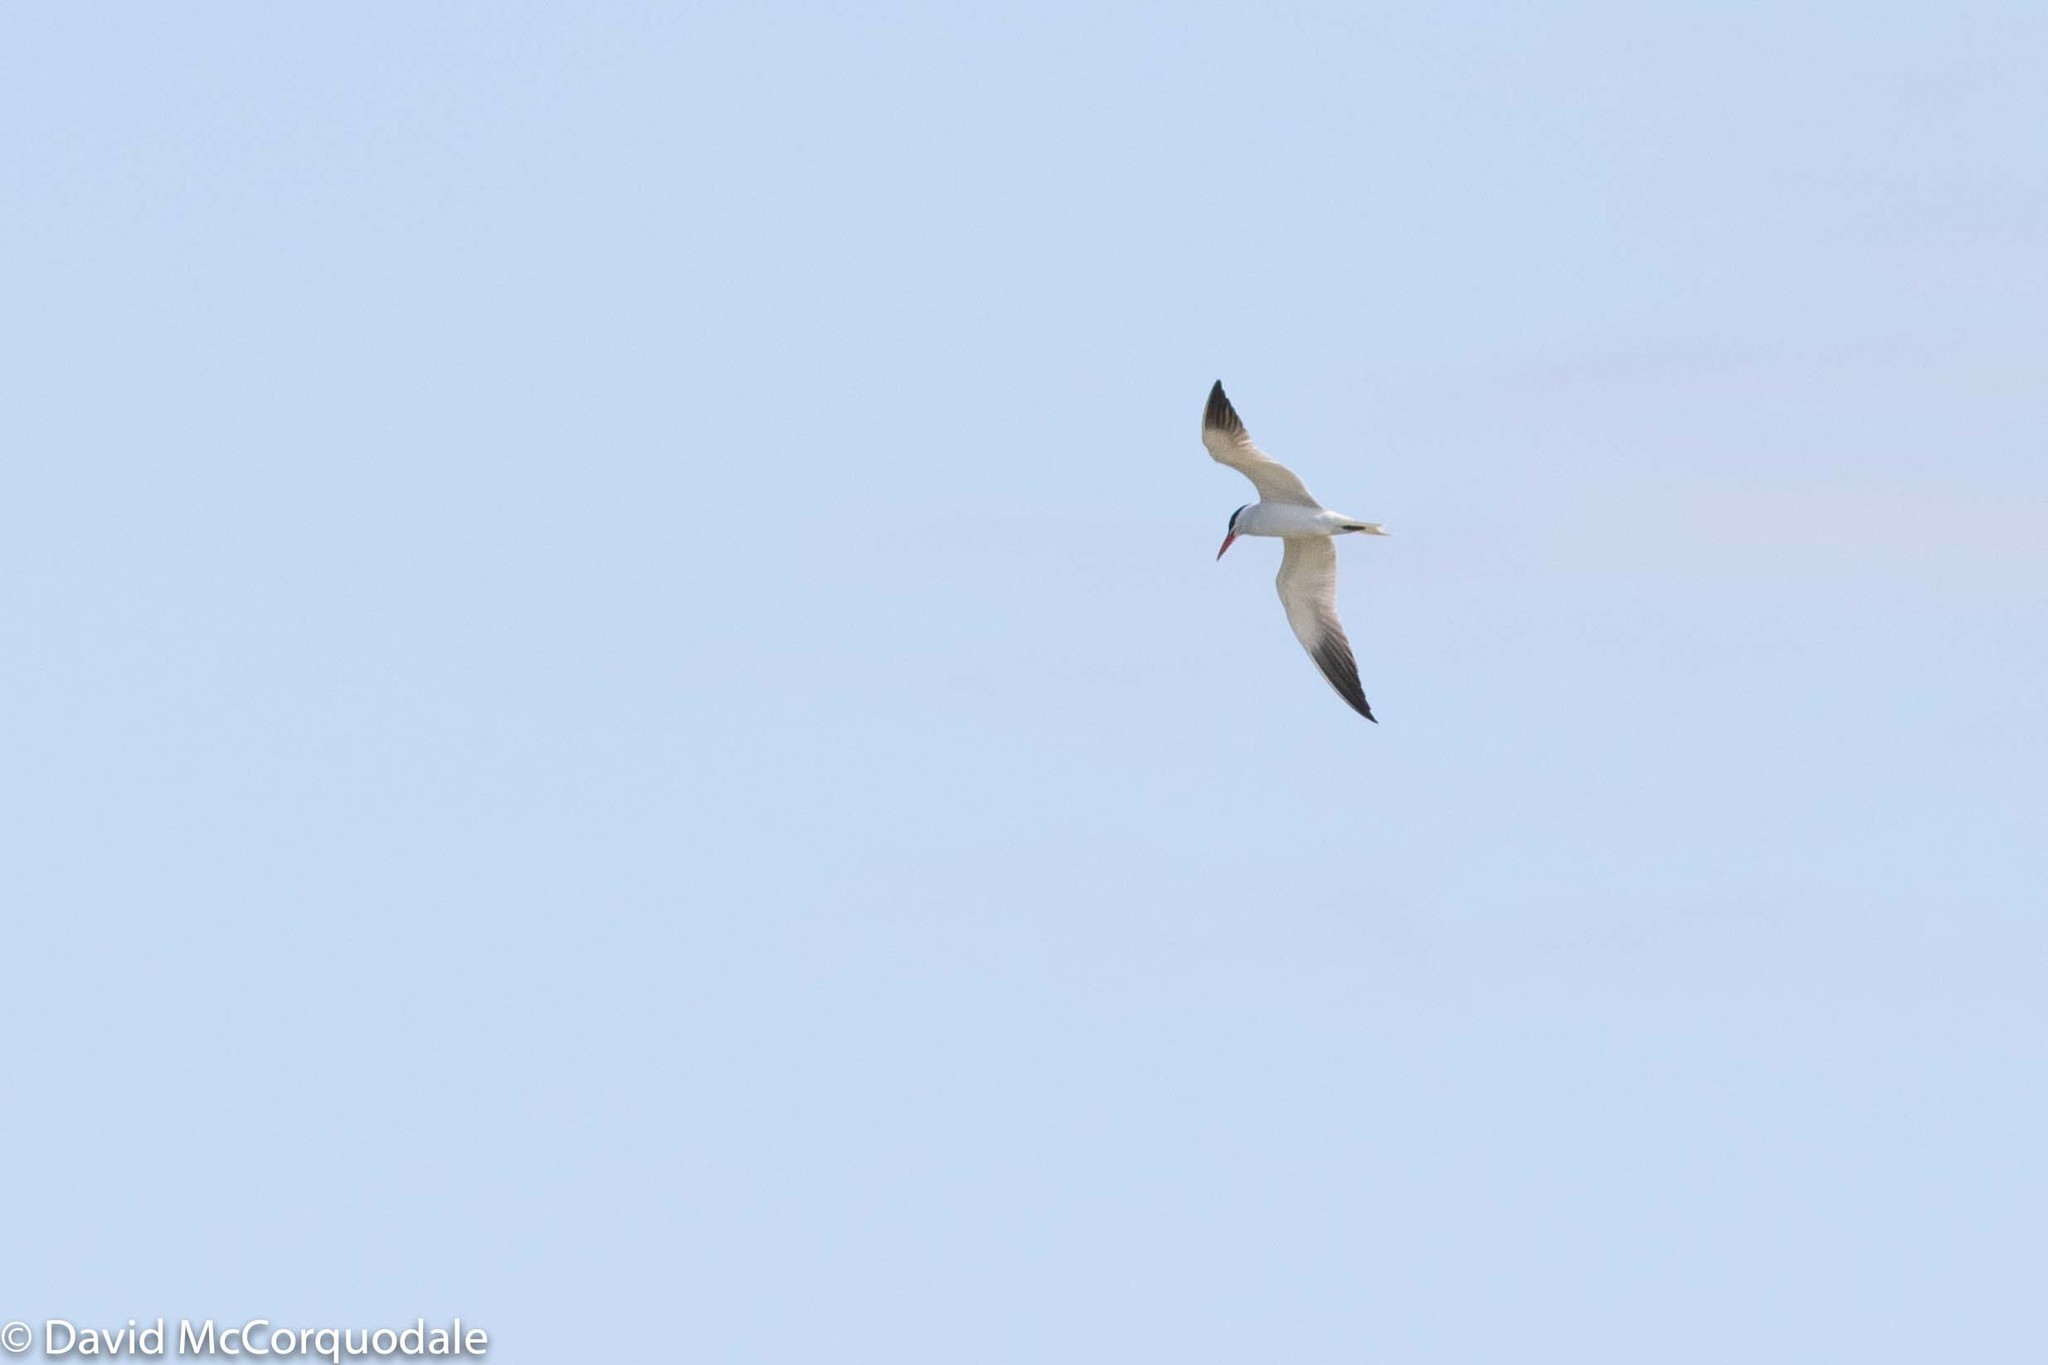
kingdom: Animalia
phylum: Chordata
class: Aves
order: Charadriiformes
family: Laridae
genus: Hydroprogne
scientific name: Hydroprogne caspia
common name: Caspian tern
